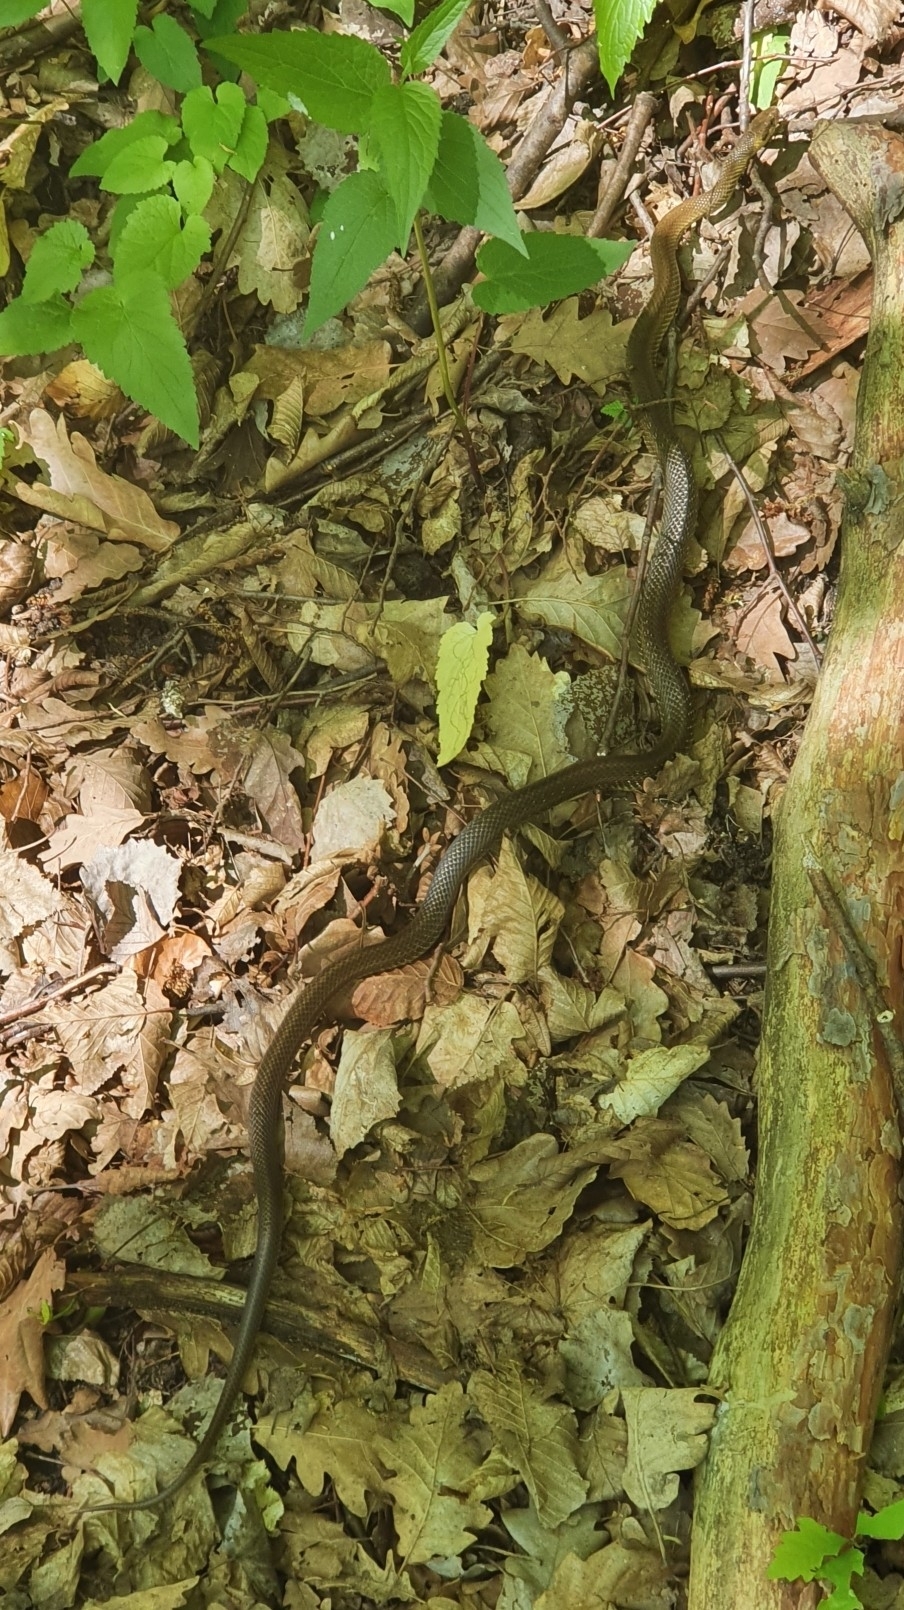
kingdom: Animalia
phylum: Chordata
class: Squamata
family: Colubridae
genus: Zamenis
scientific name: Zamenis longissimus
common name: Aesculapean snake
